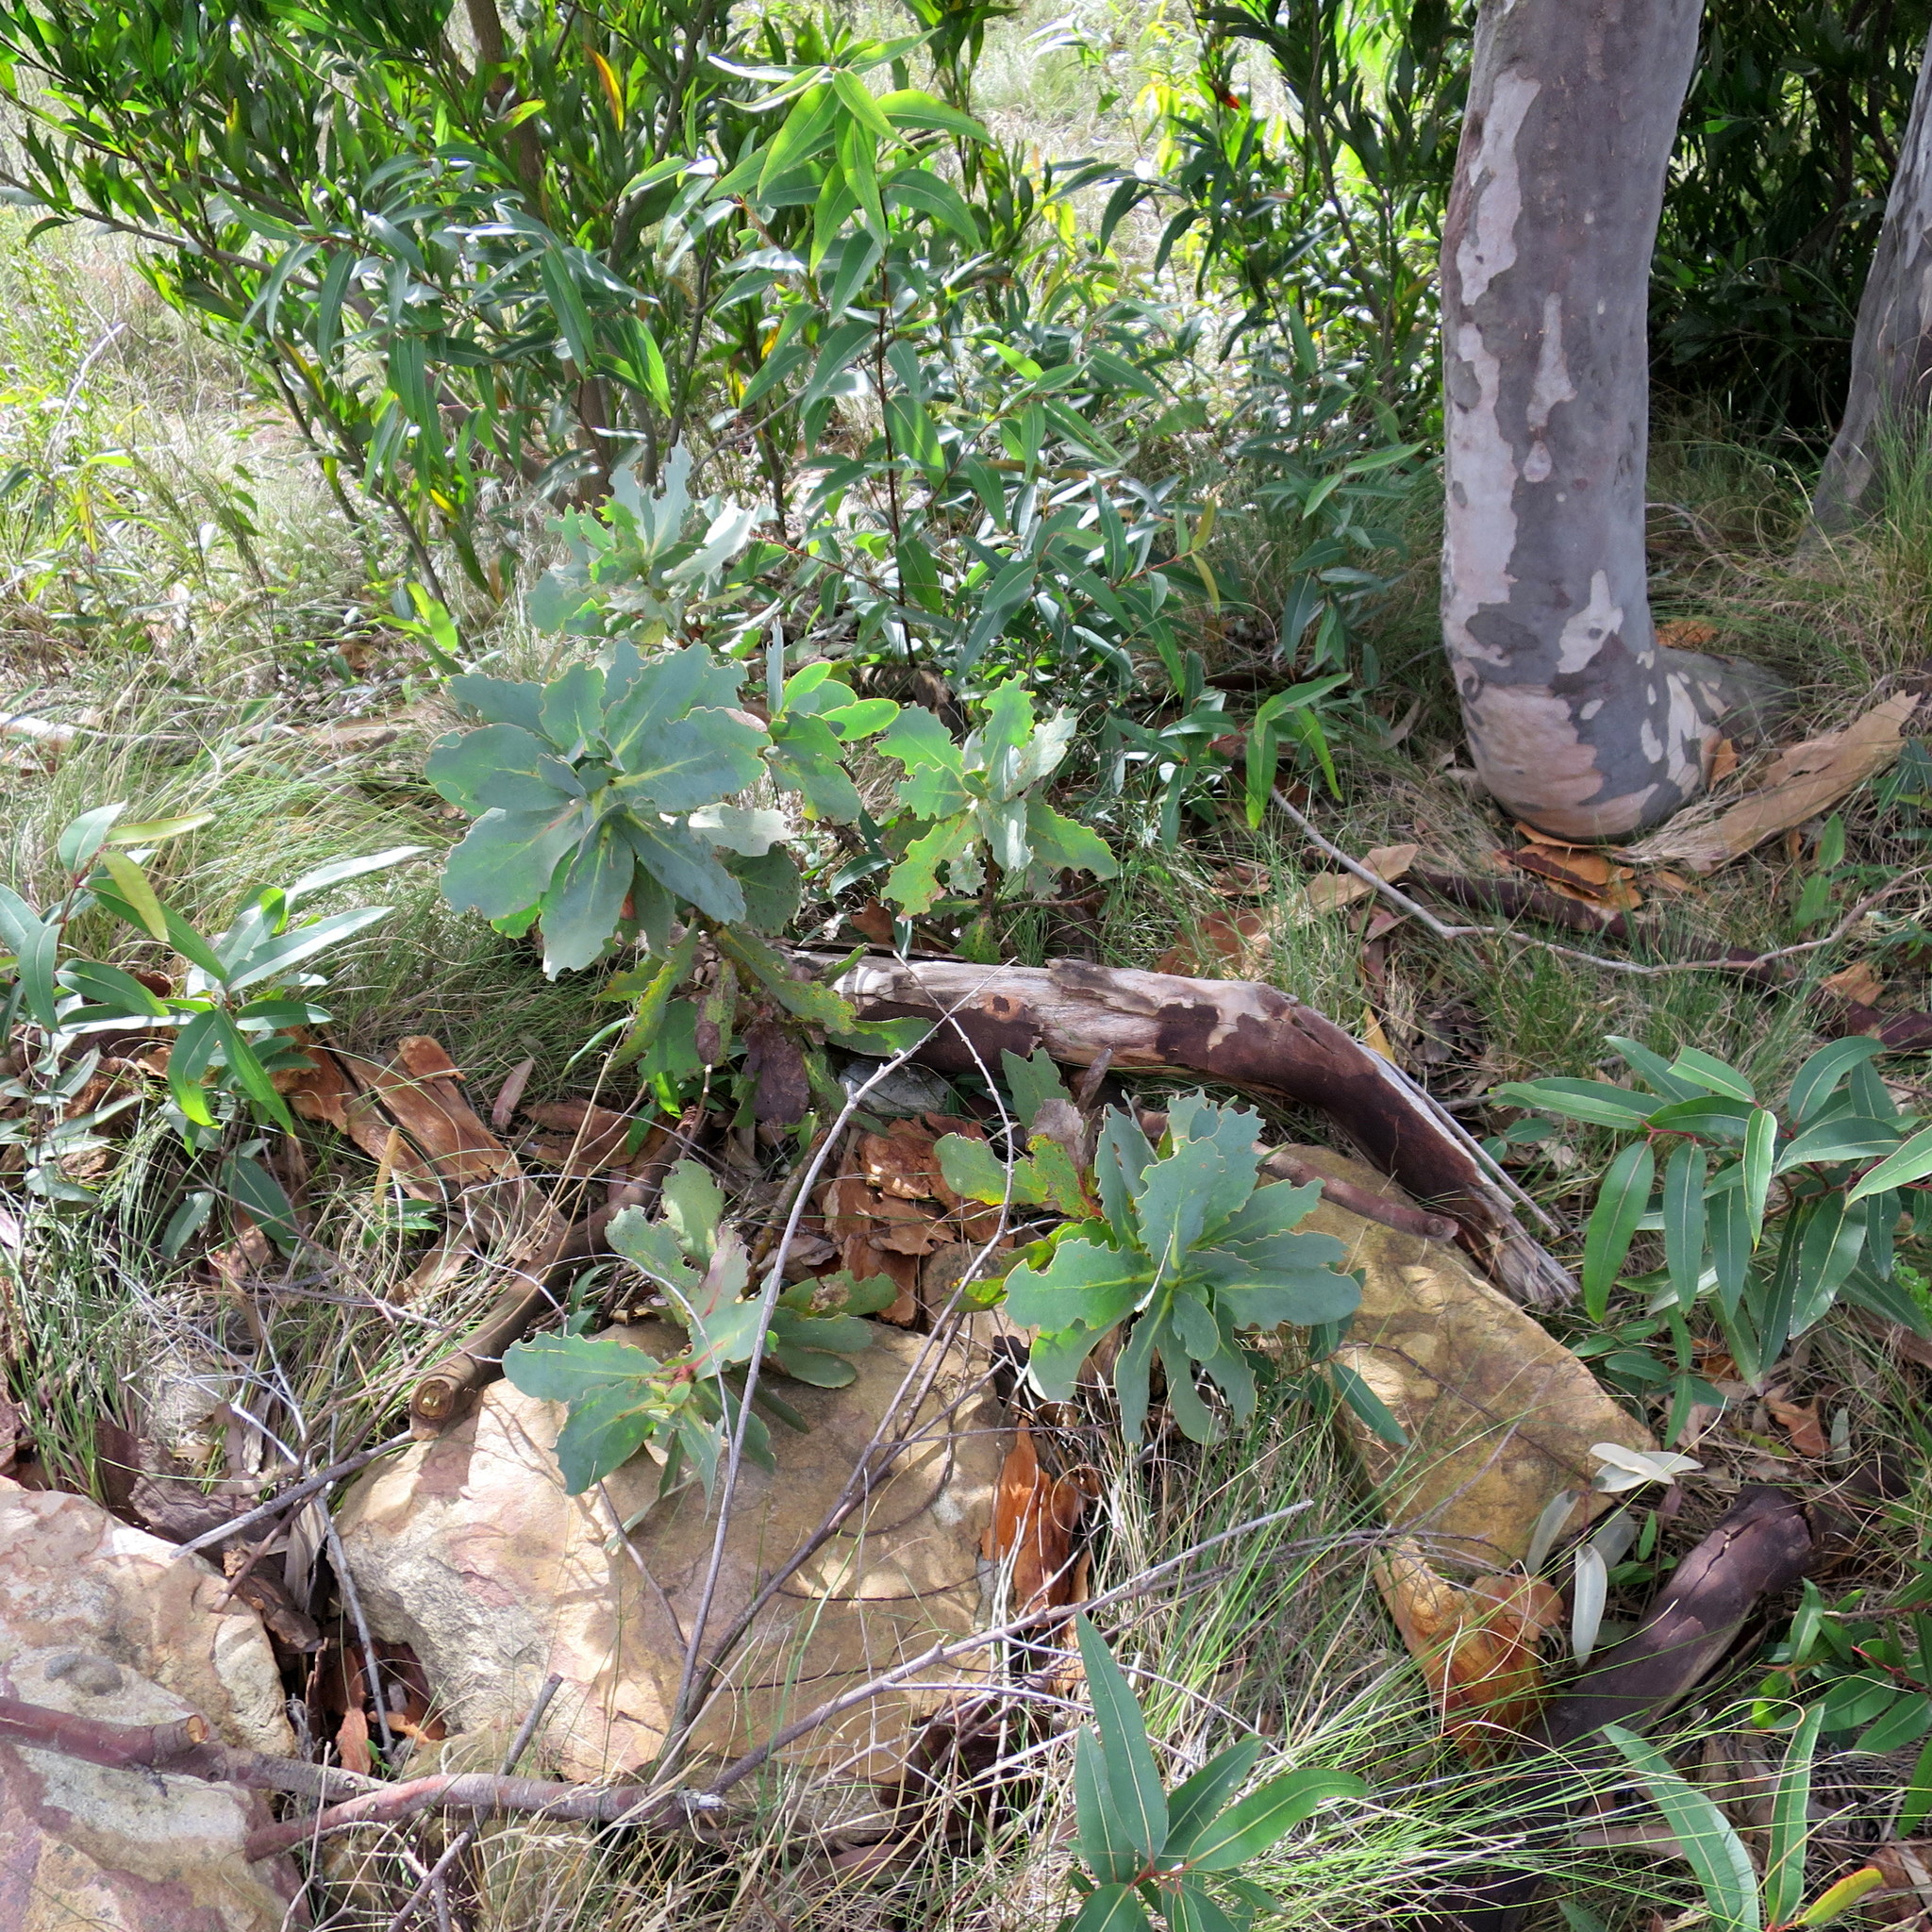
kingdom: Plantae
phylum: Tracheophyta
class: Magnoliopsida
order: Proteales
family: Proteaceae
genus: Protea
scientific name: Protea nitida
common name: Tree protea
